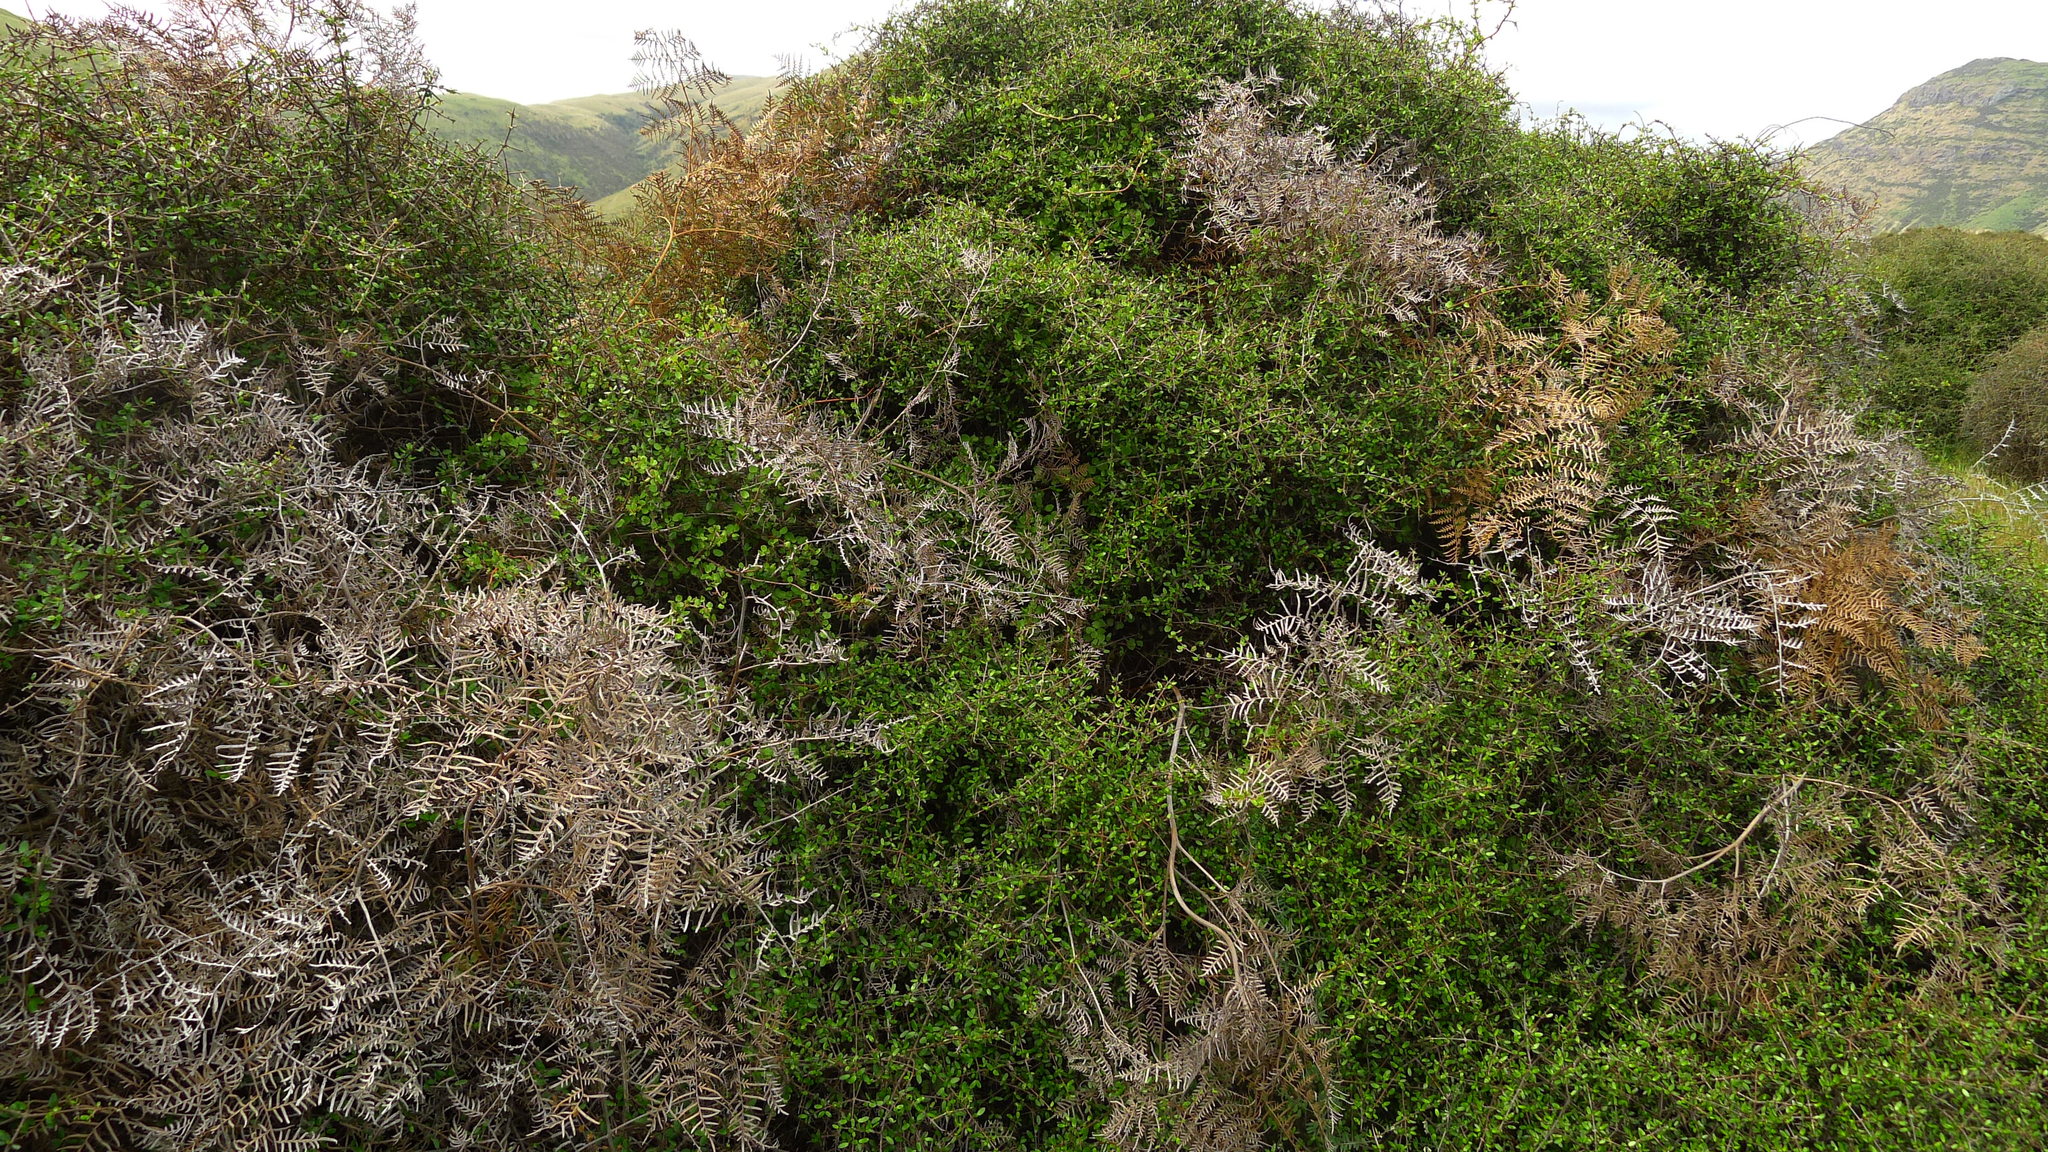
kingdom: Plantae
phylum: Tracheophyta
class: Polypodiopsida
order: Polypodiales
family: Dennstaedtiaceae
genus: Pteridium
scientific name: Pteridium esculentum
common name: Bracken fern
